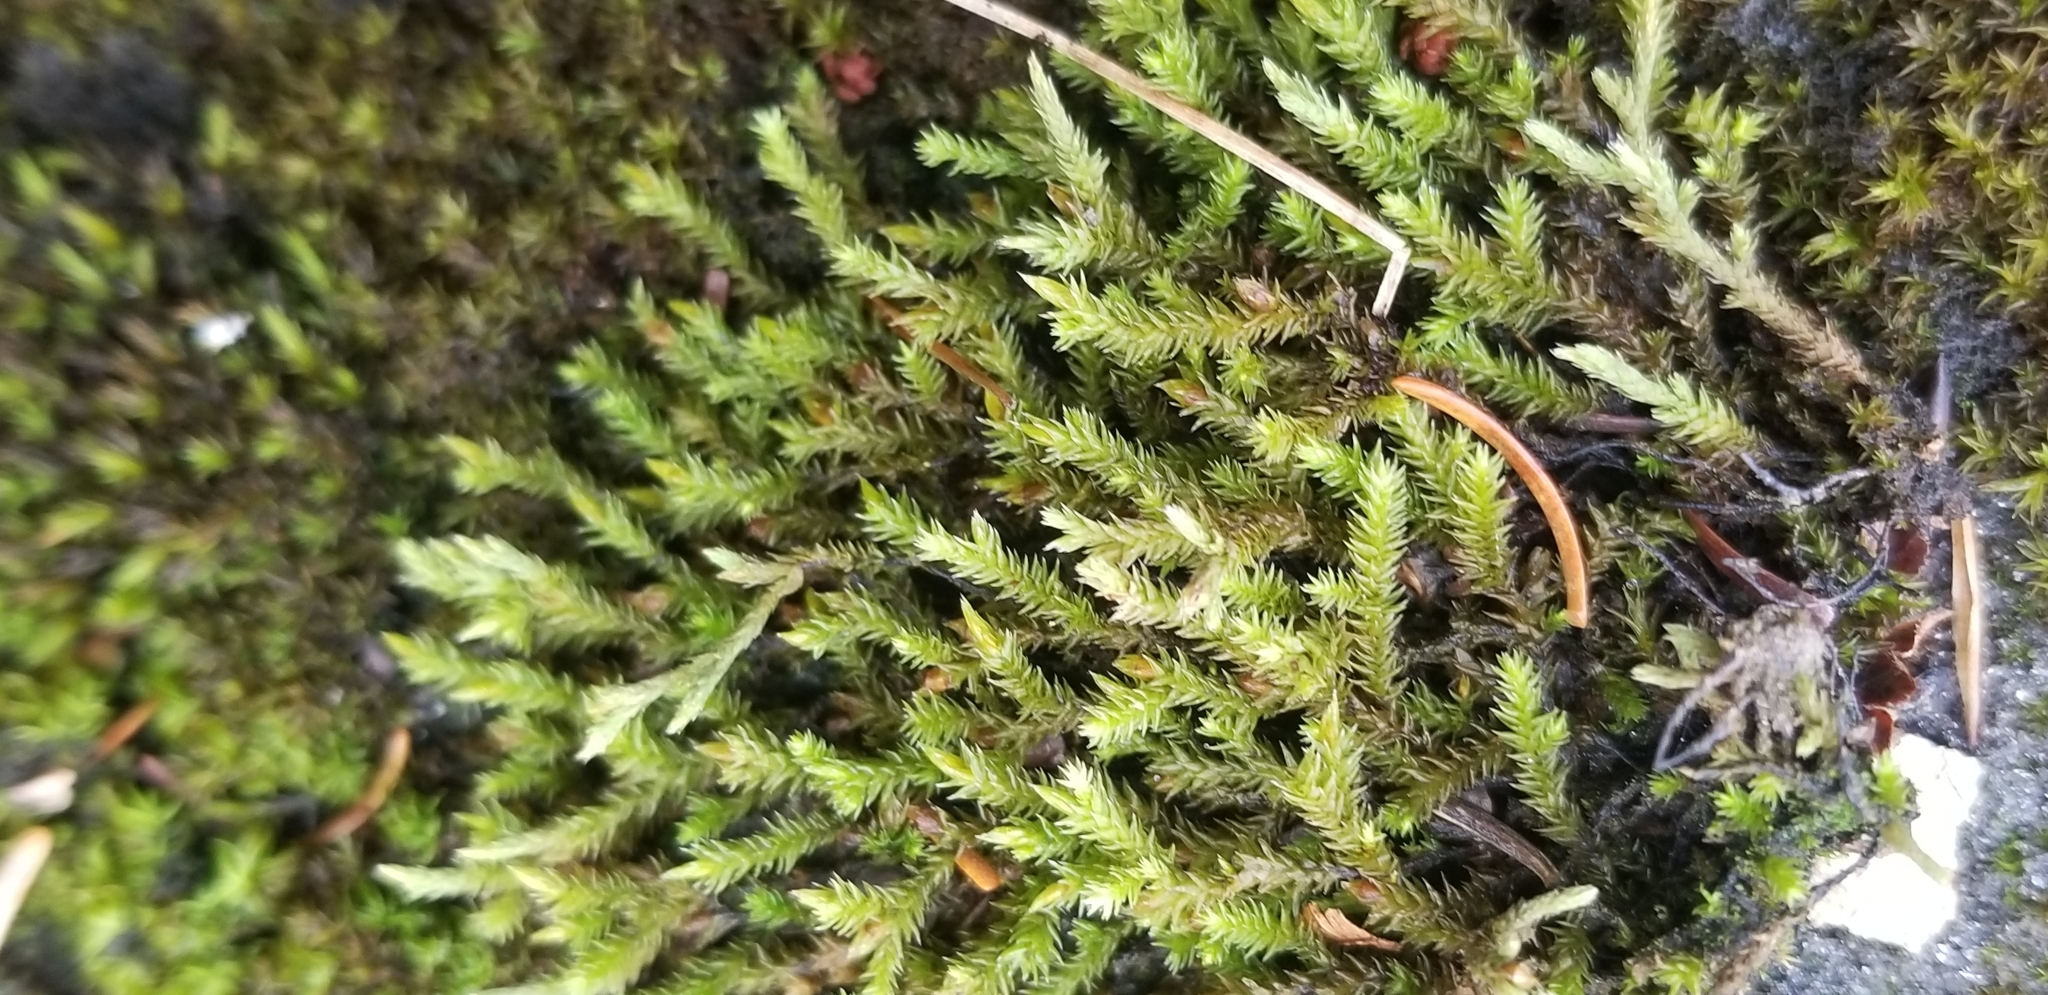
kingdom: Plantae
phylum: Bryophyta
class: Bryopsida
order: Hedwigiales
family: Hedwigiaceae
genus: Hedwigia
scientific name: Hedwigia ciliata
